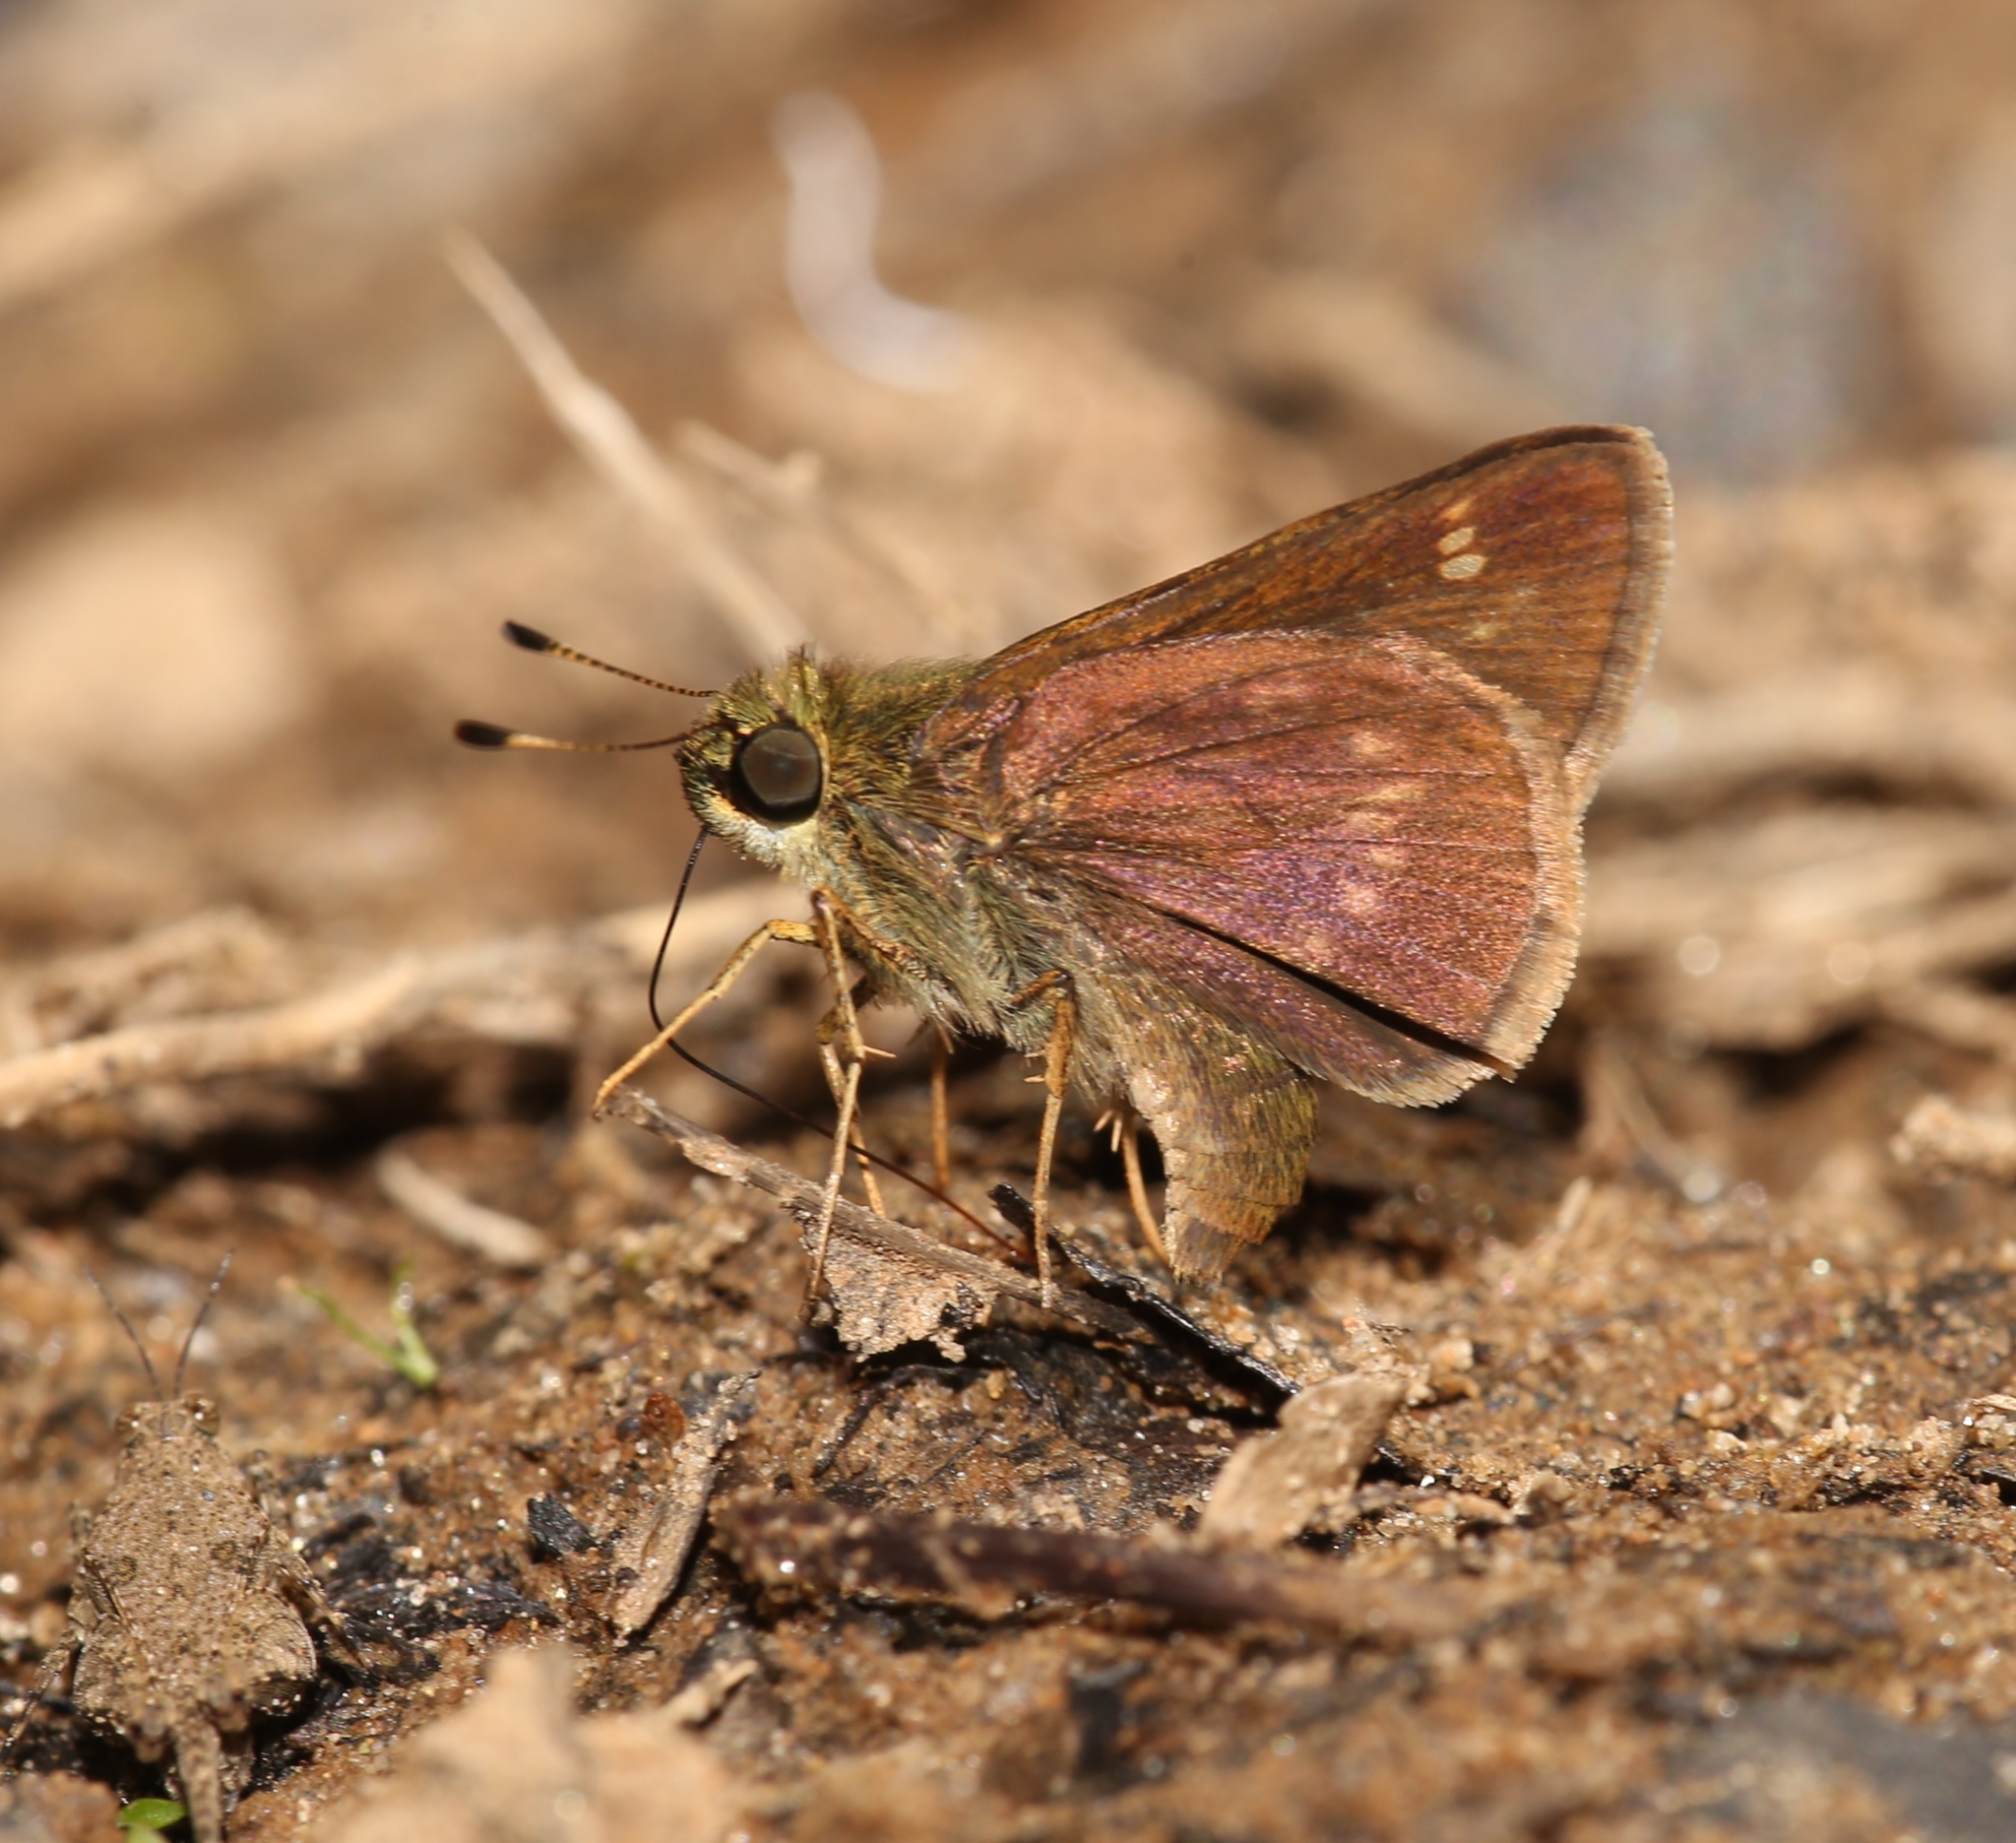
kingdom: Animalia
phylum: Arthropoda
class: Insecta
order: Lepidoptera
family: Hesperiidae
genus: Vernia
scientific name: Vernia verna
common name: Little glassywing
